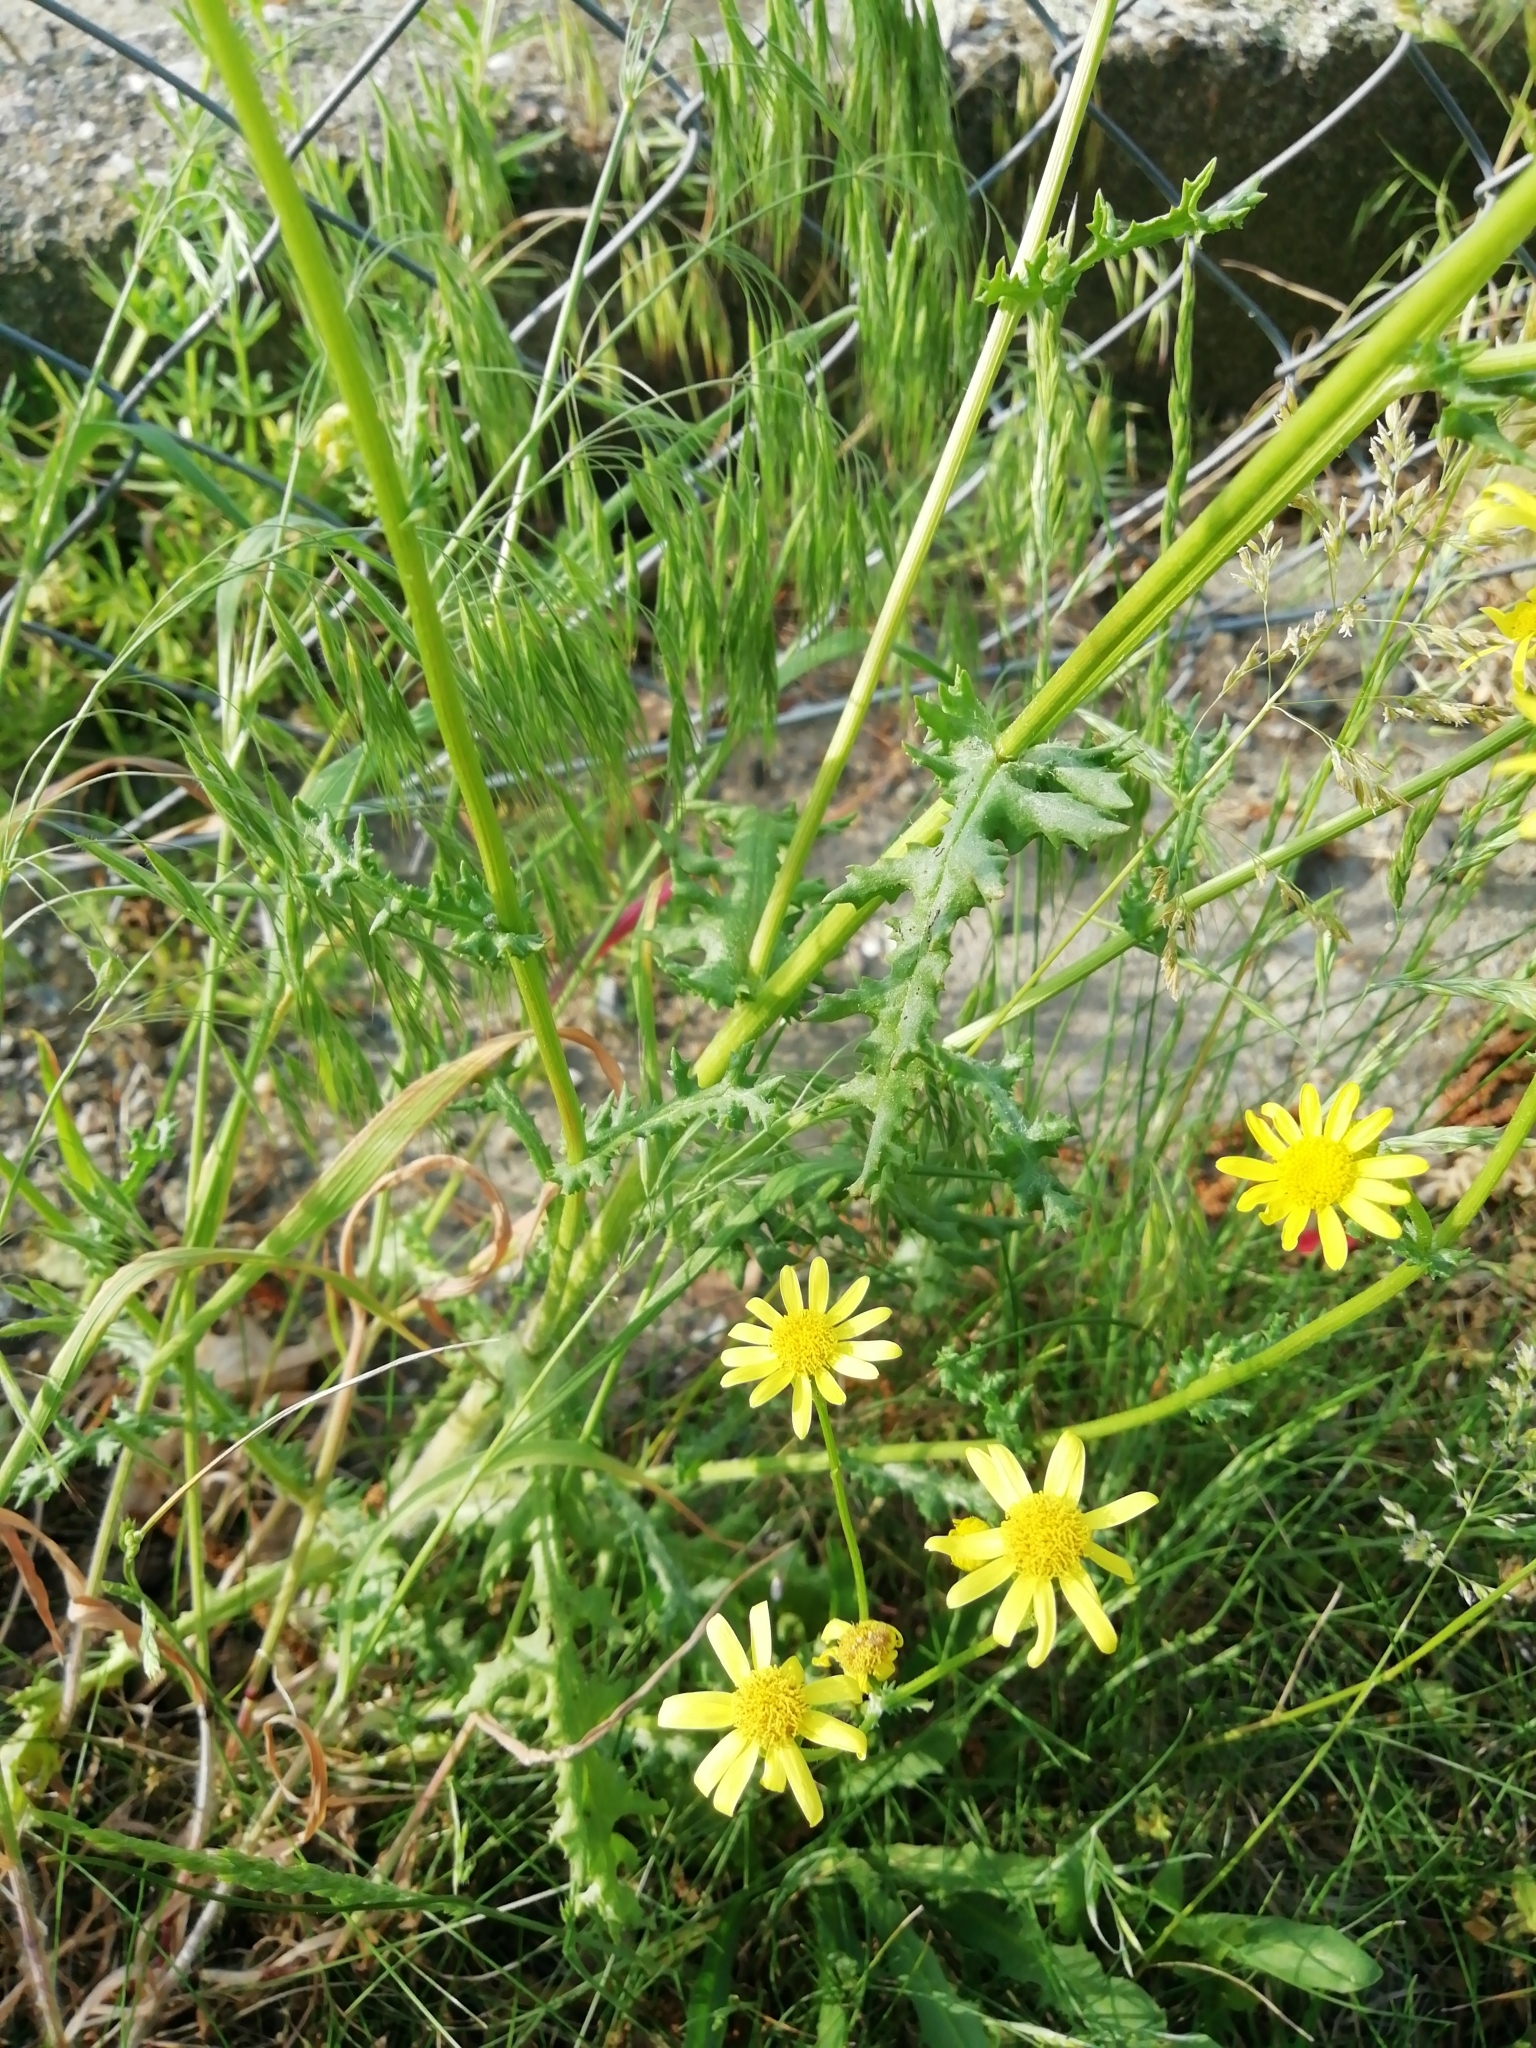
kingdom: Plantae
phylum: Tracheophyta
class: Magnoliopsida
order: Asterales
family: Asteraceae
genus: Senecio
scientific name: Senecio vernalis
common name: Eastern groundsel
